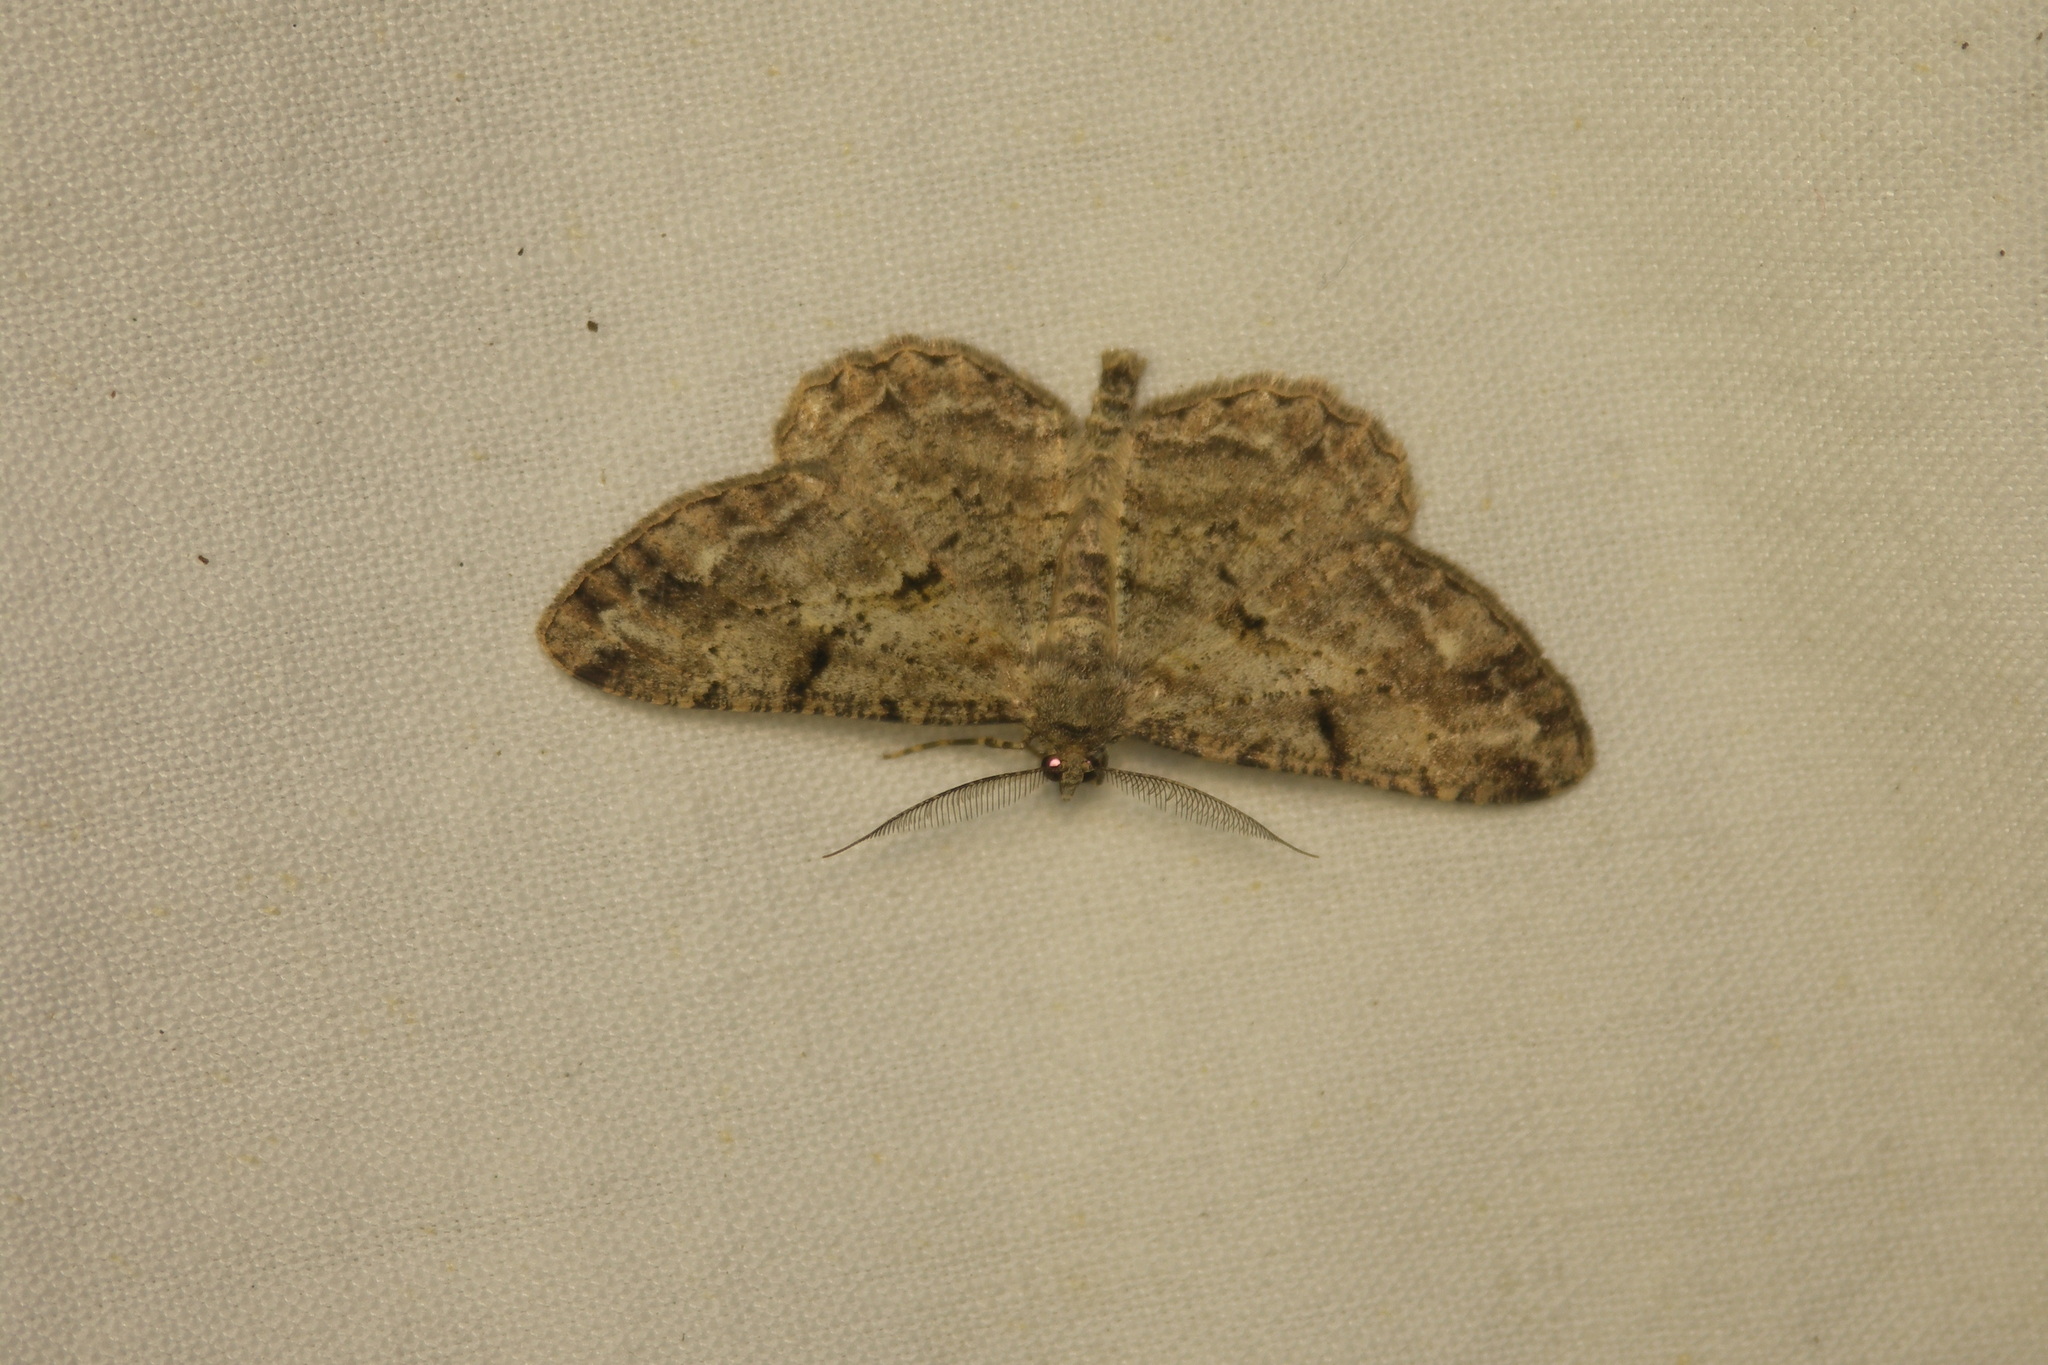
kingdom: Animalia
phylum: Arthropoda
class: Insecta
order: Lepidoptera
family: Geometridae
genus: Peribatodes
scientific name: Peribatodes rhomboidaria
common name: Willow beauty
